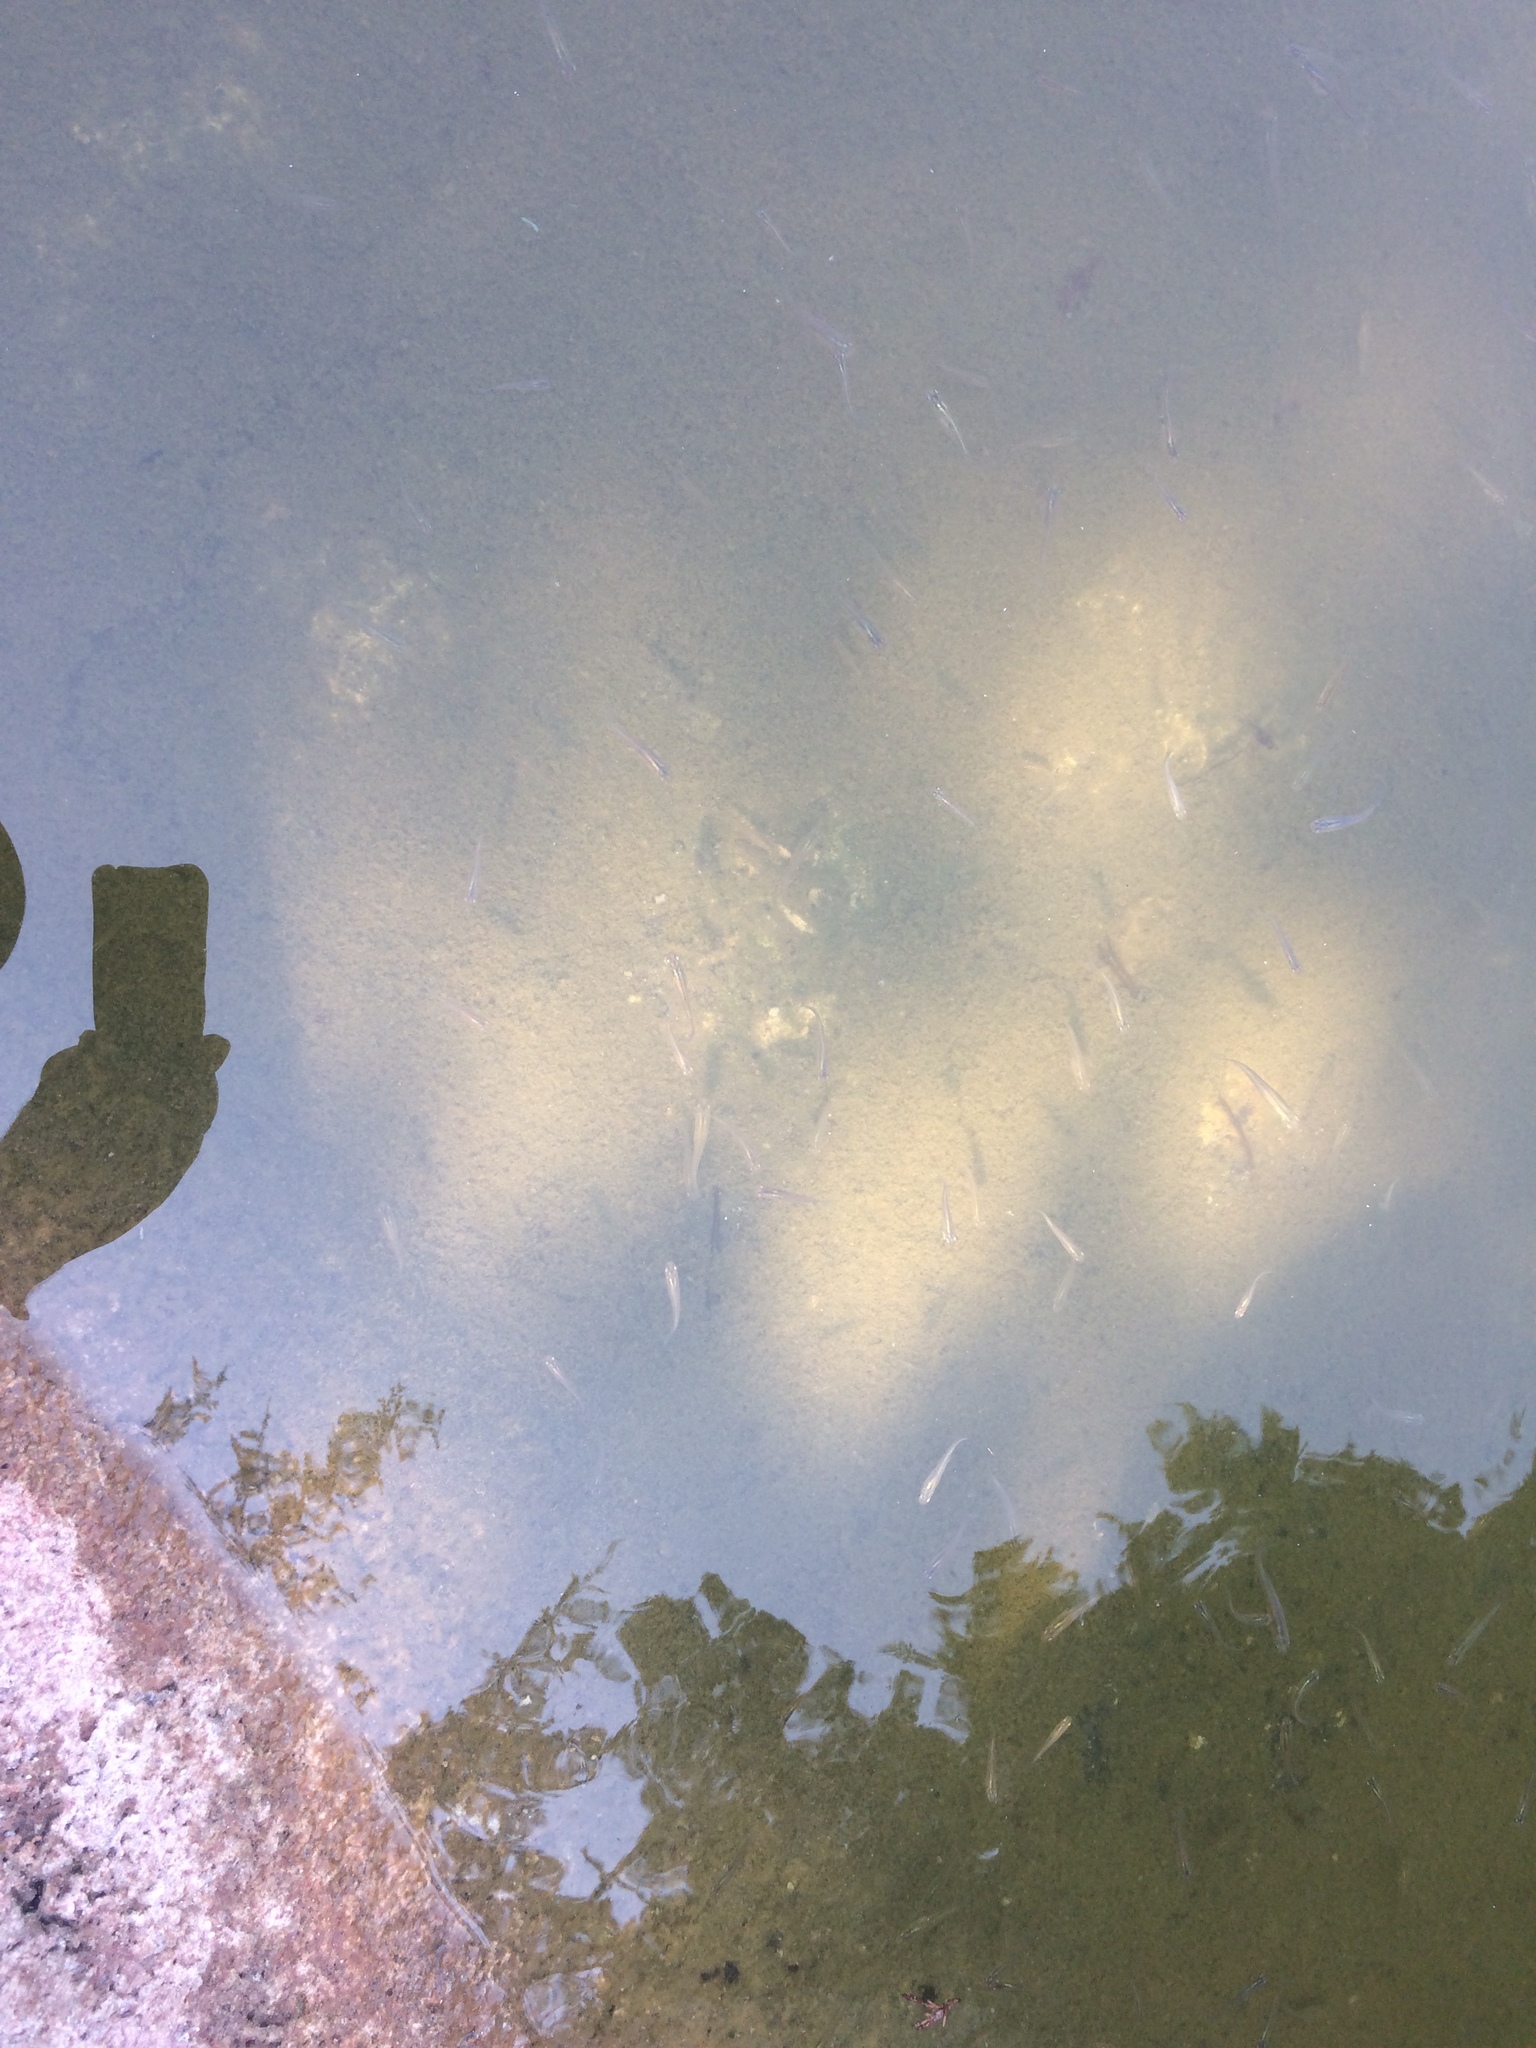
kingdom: Animalia
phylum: Chordata
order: Cyprinodontiformes
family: Poeciliidae
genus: Gambusia
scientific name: Gambusia affinis
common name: Mosquitofish
